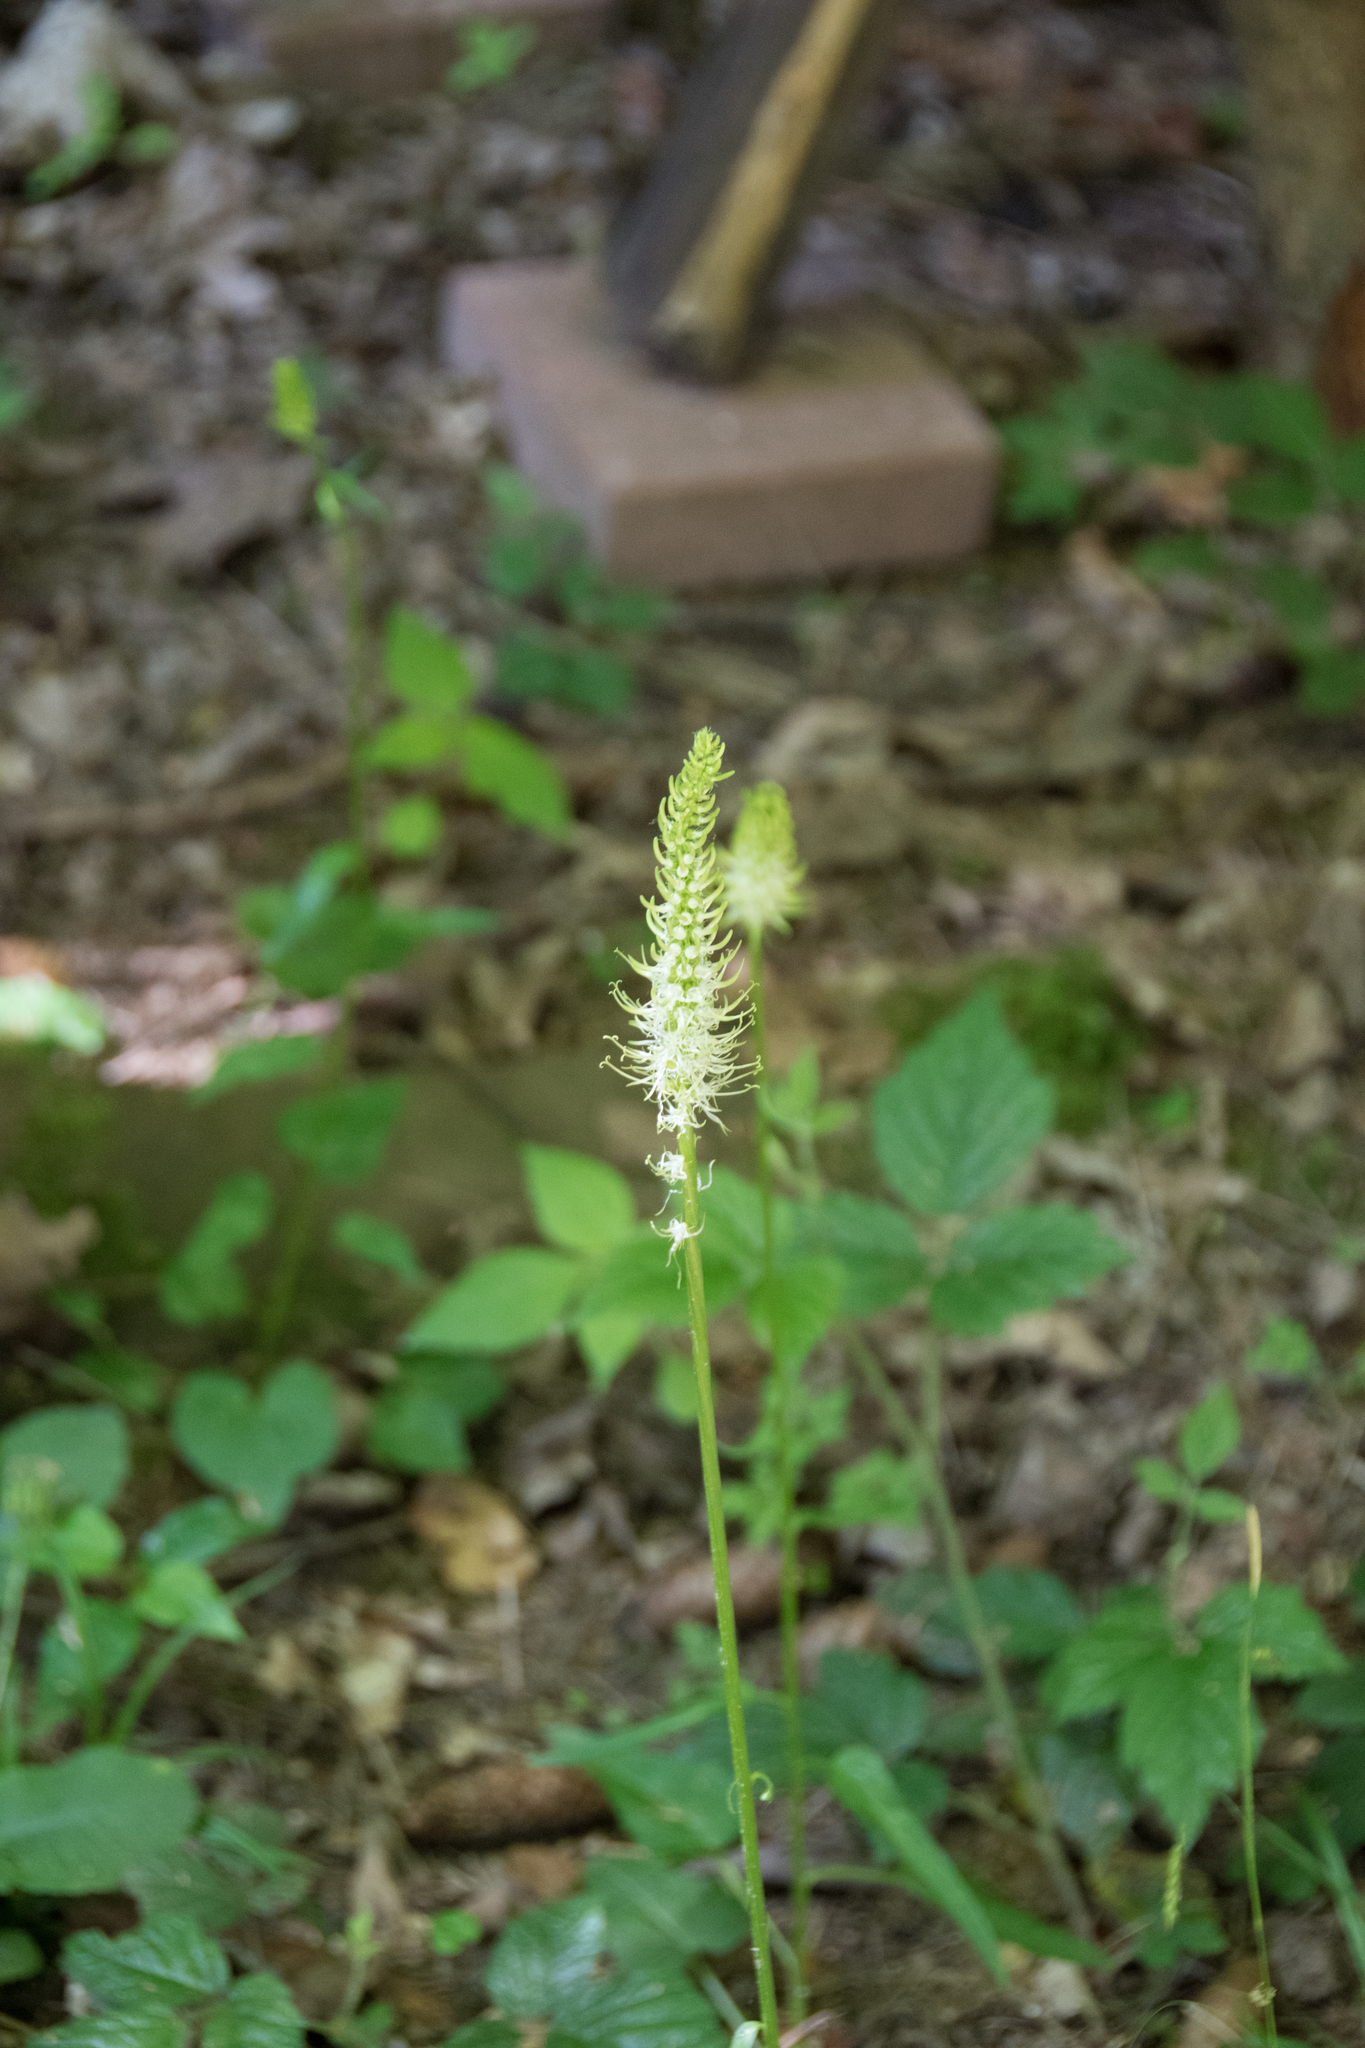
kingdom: Plantae
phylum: Tracheophyta
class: Magnoliopsida
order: Asterales
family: Campanulaceae
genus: Phyteuma
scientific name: Phyteuma spicatum
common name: Spiked rampion
